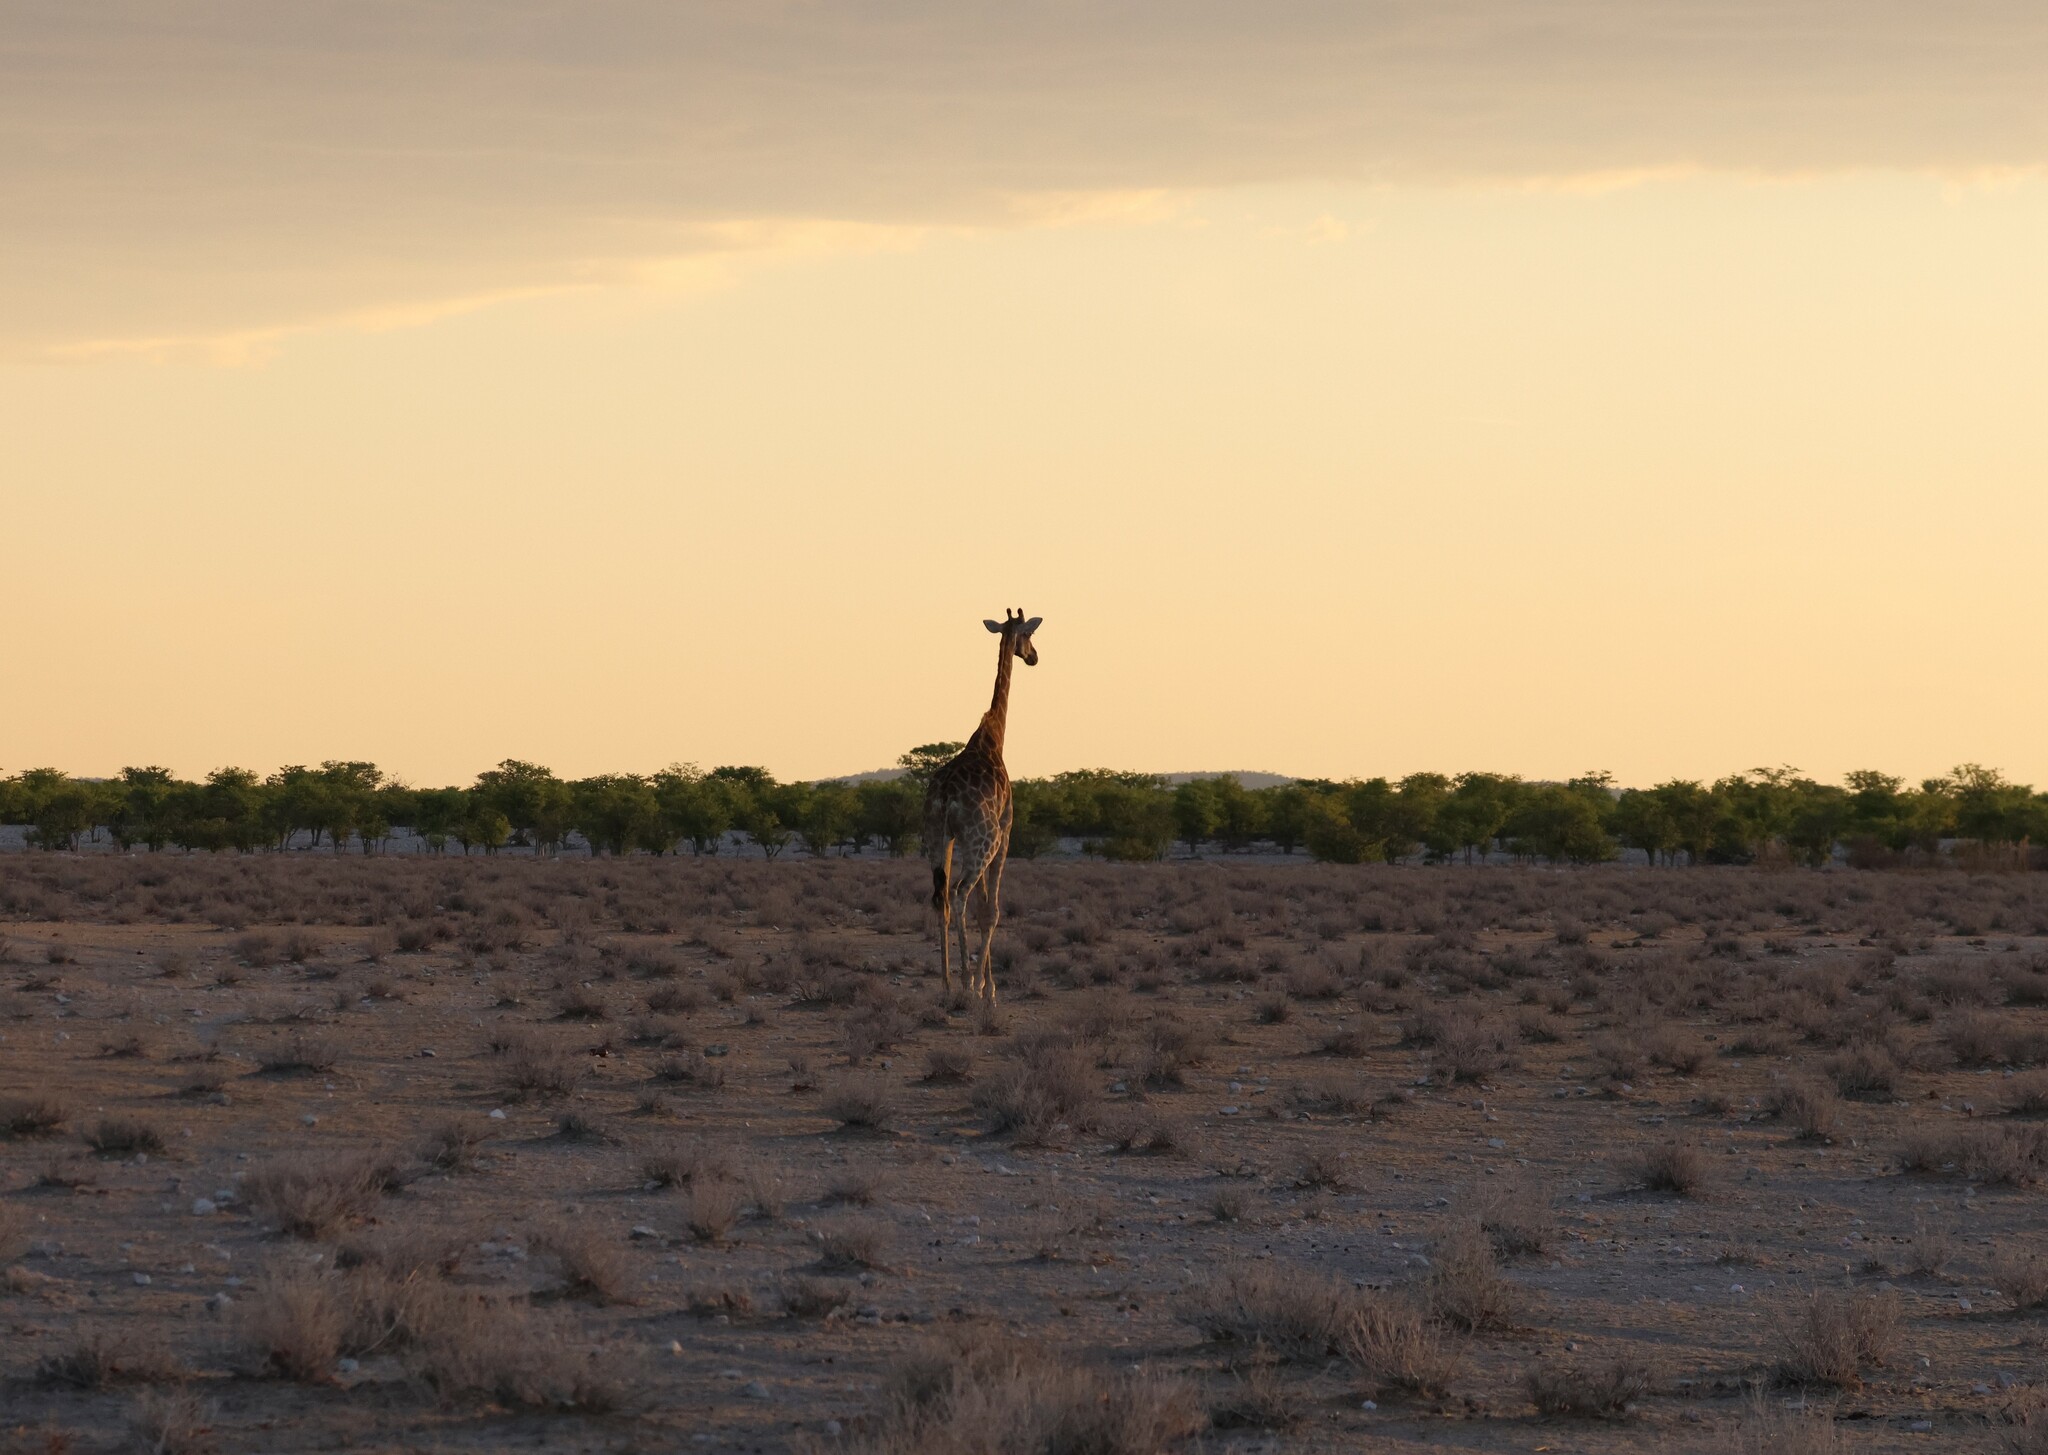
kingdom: Animalia
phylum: Chordata
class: Mammalia
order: Artiodactyla
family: Giraffidae
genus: Giraffa
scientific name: Giraffa giraffa
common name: Southern giraffe
